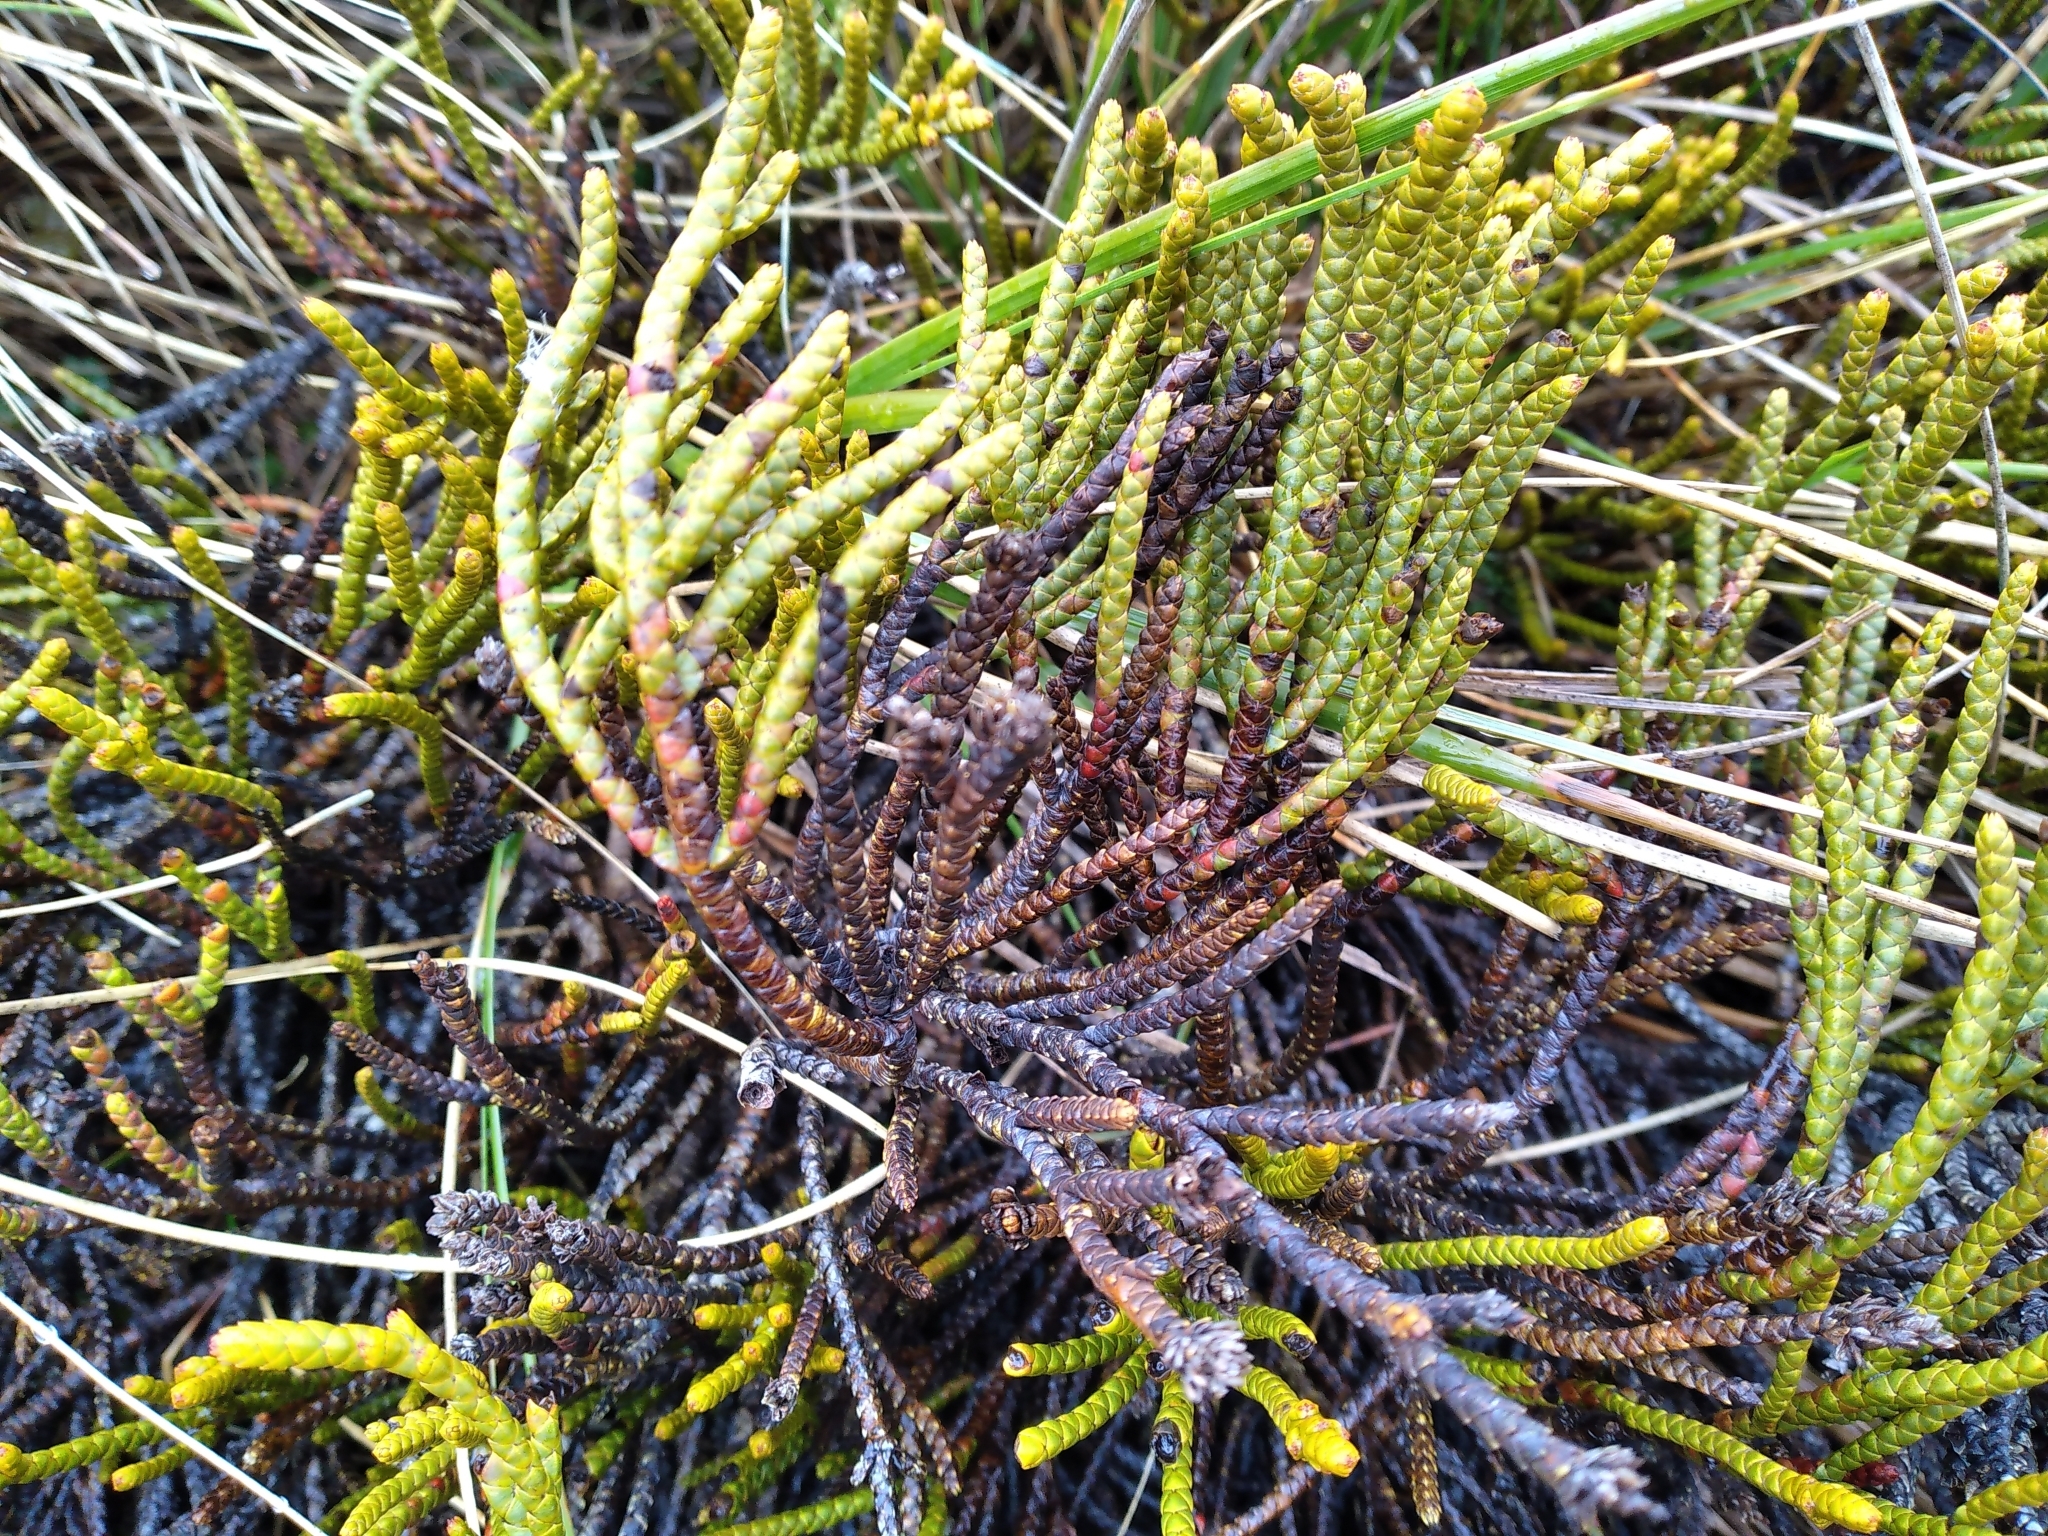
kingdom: Plantae
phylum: Tracheophyta
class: Magnoliopsida
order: Lamiales
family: Plantaginaceae
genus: Veronica
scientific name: Veronica hectorii
